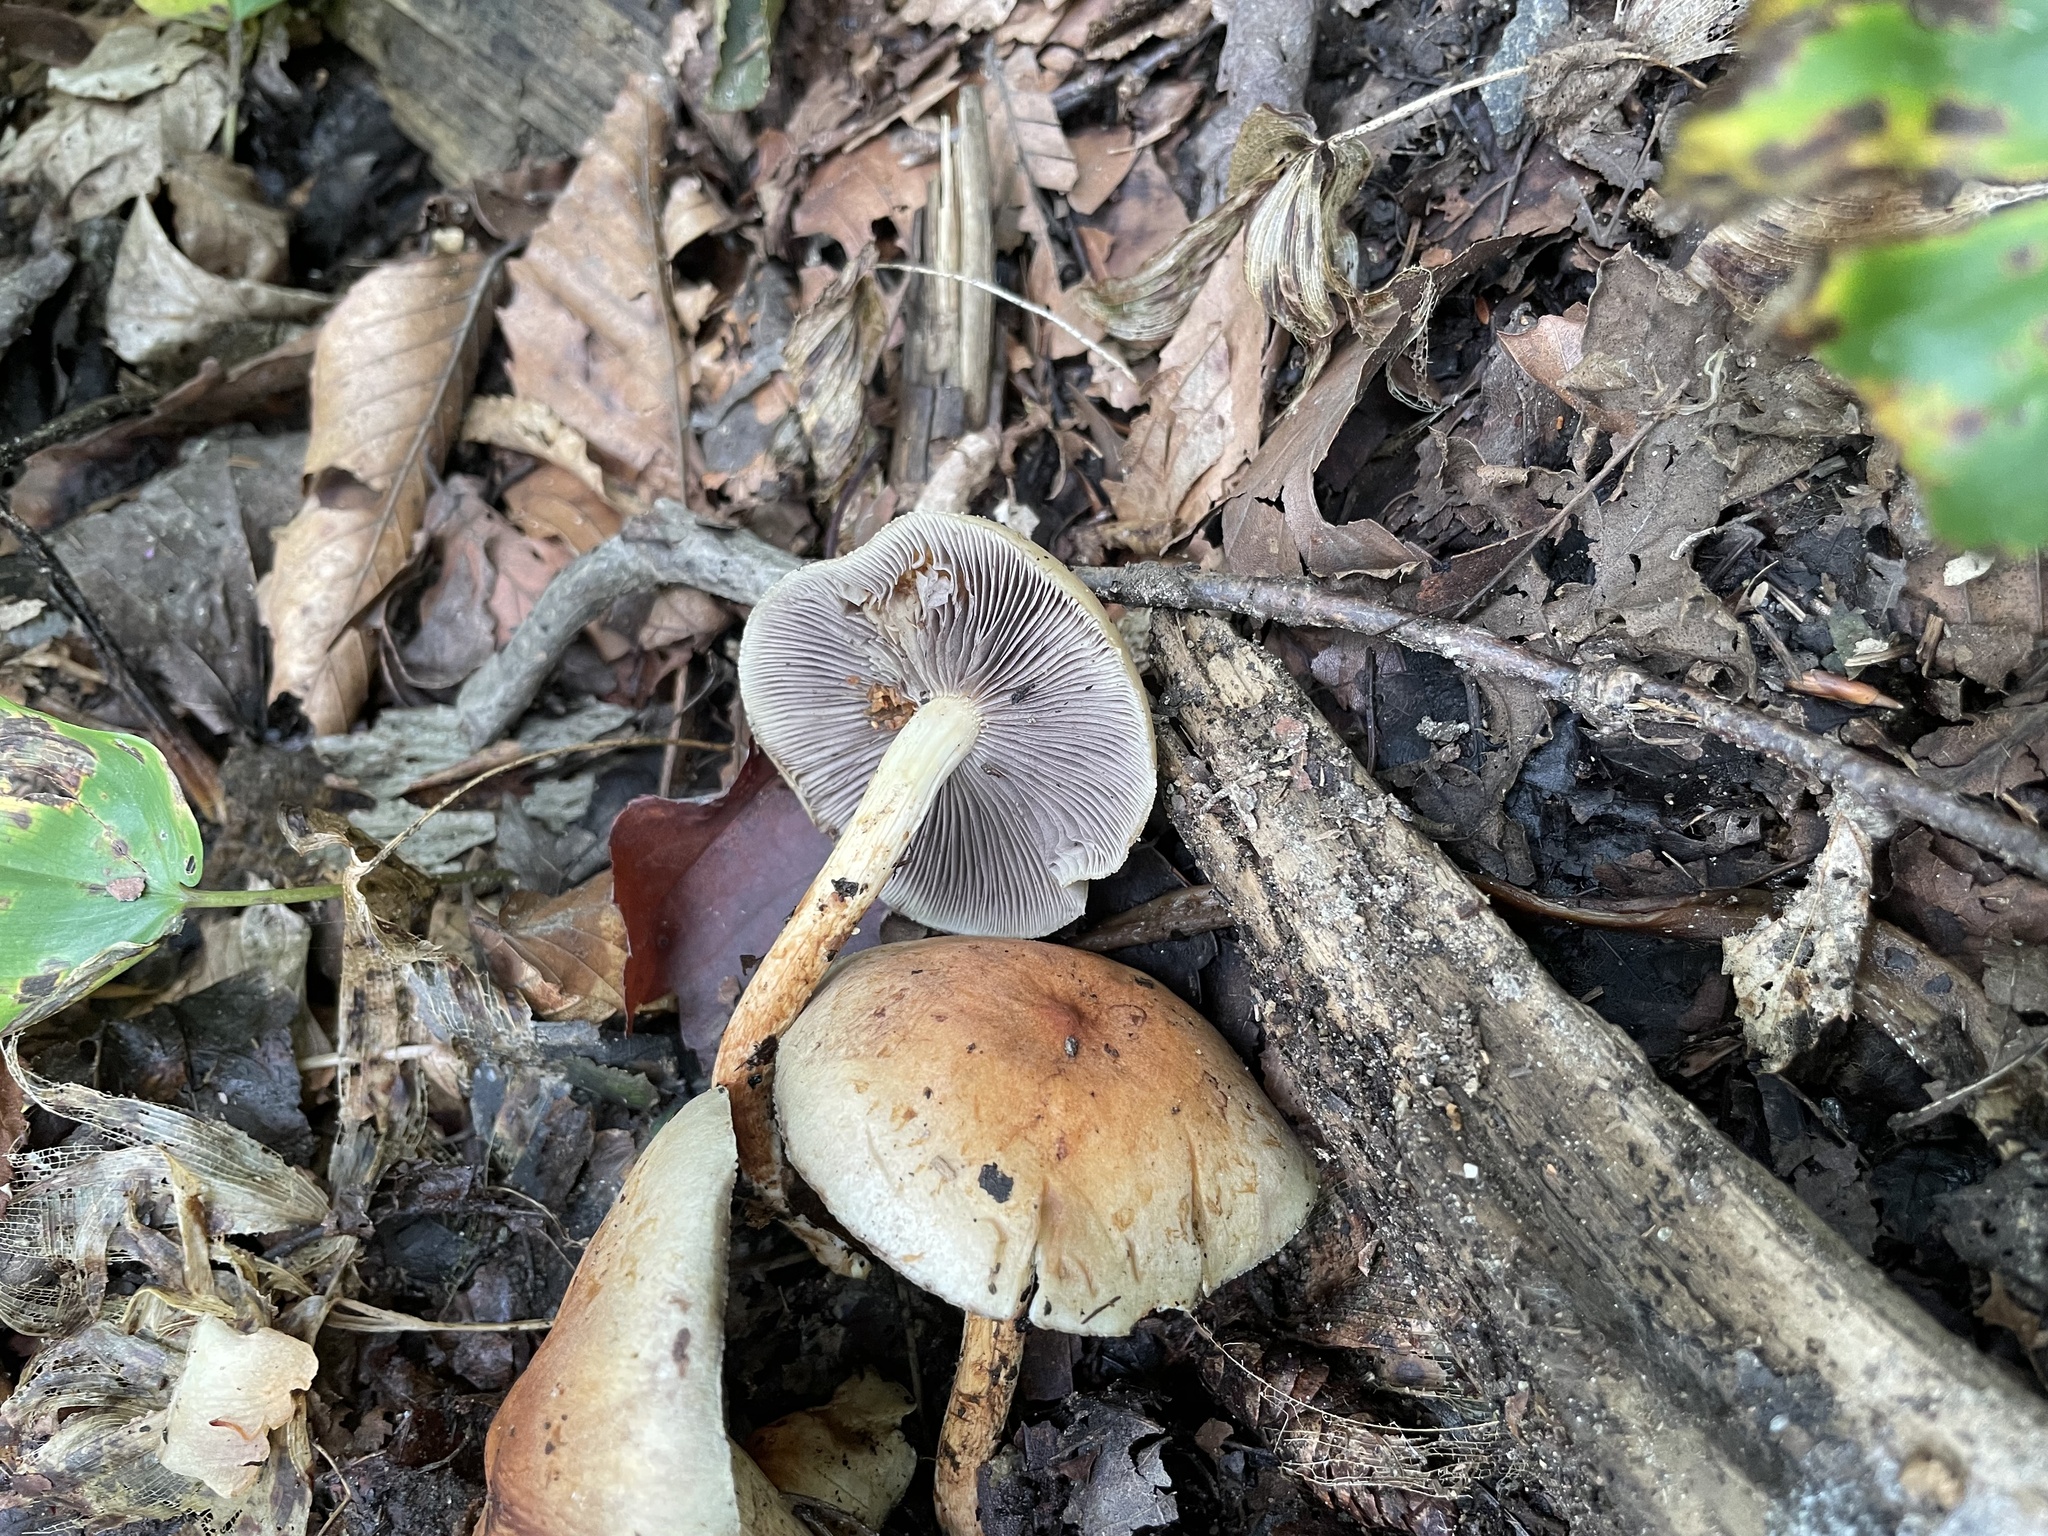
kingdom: Fungi
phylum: Basidiomycota
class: Agaricomycetes
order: Agaricales
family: Strophariaceae
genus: Hypholoma
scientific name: Hypholoma lateritium
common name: Brick caps
